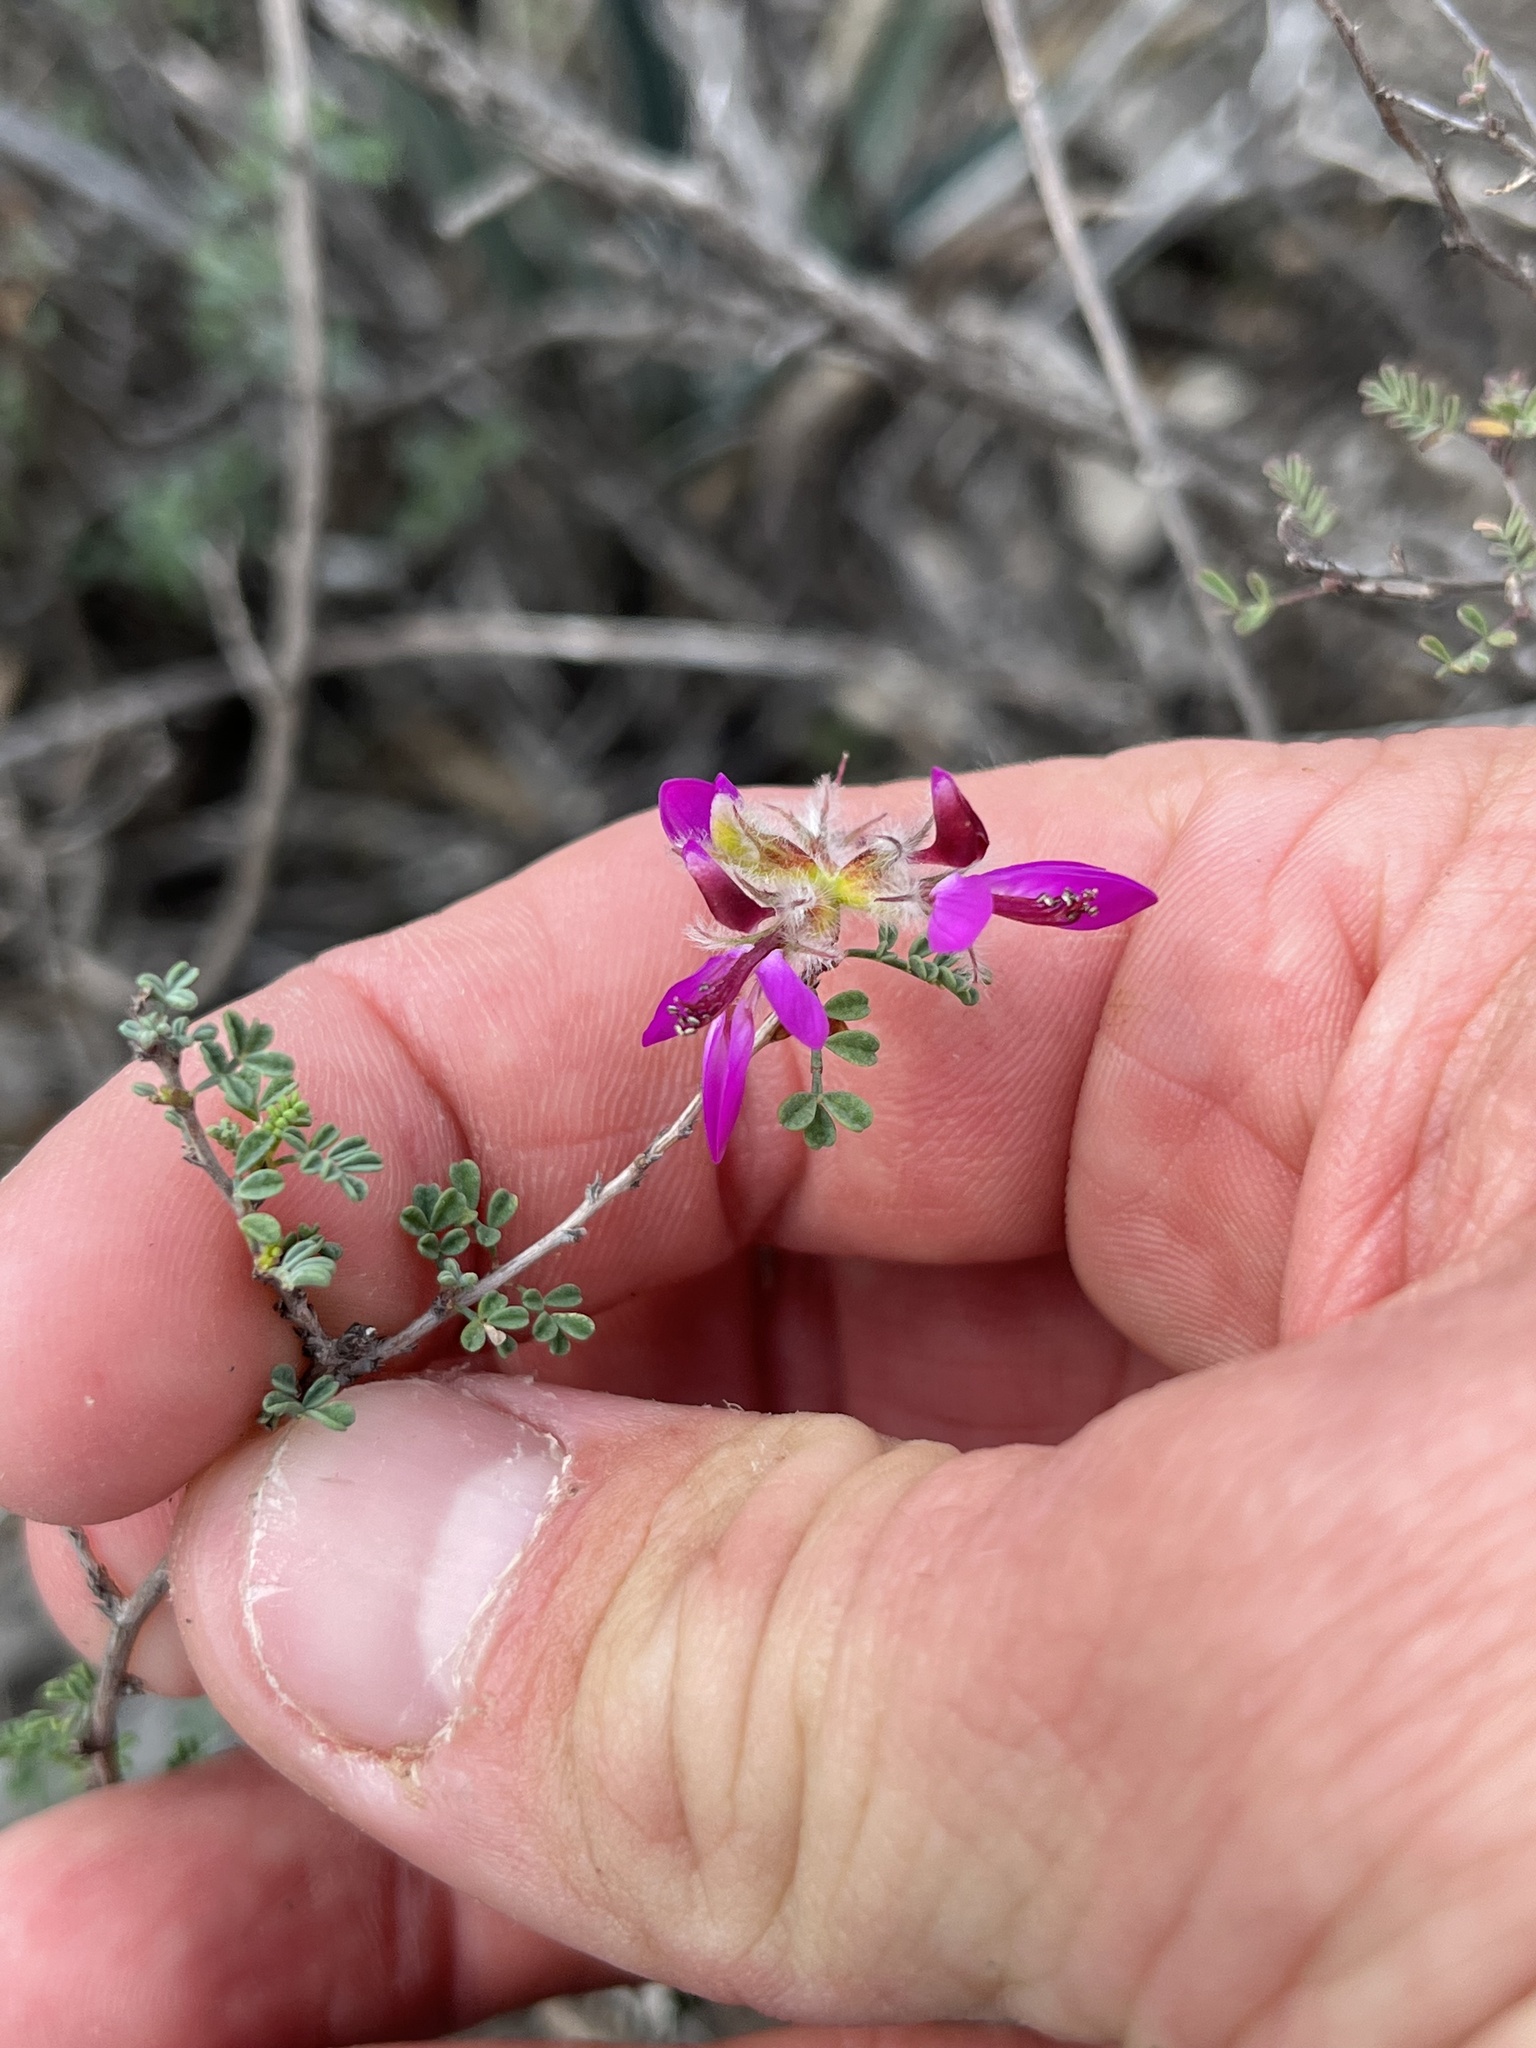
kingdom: Plantae
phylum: Tracheophyta
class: Magnoliopsida
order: Fabales
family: Fabaceae
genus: Dalea
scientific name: Dalea formosa
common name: Feather-plume dalea
